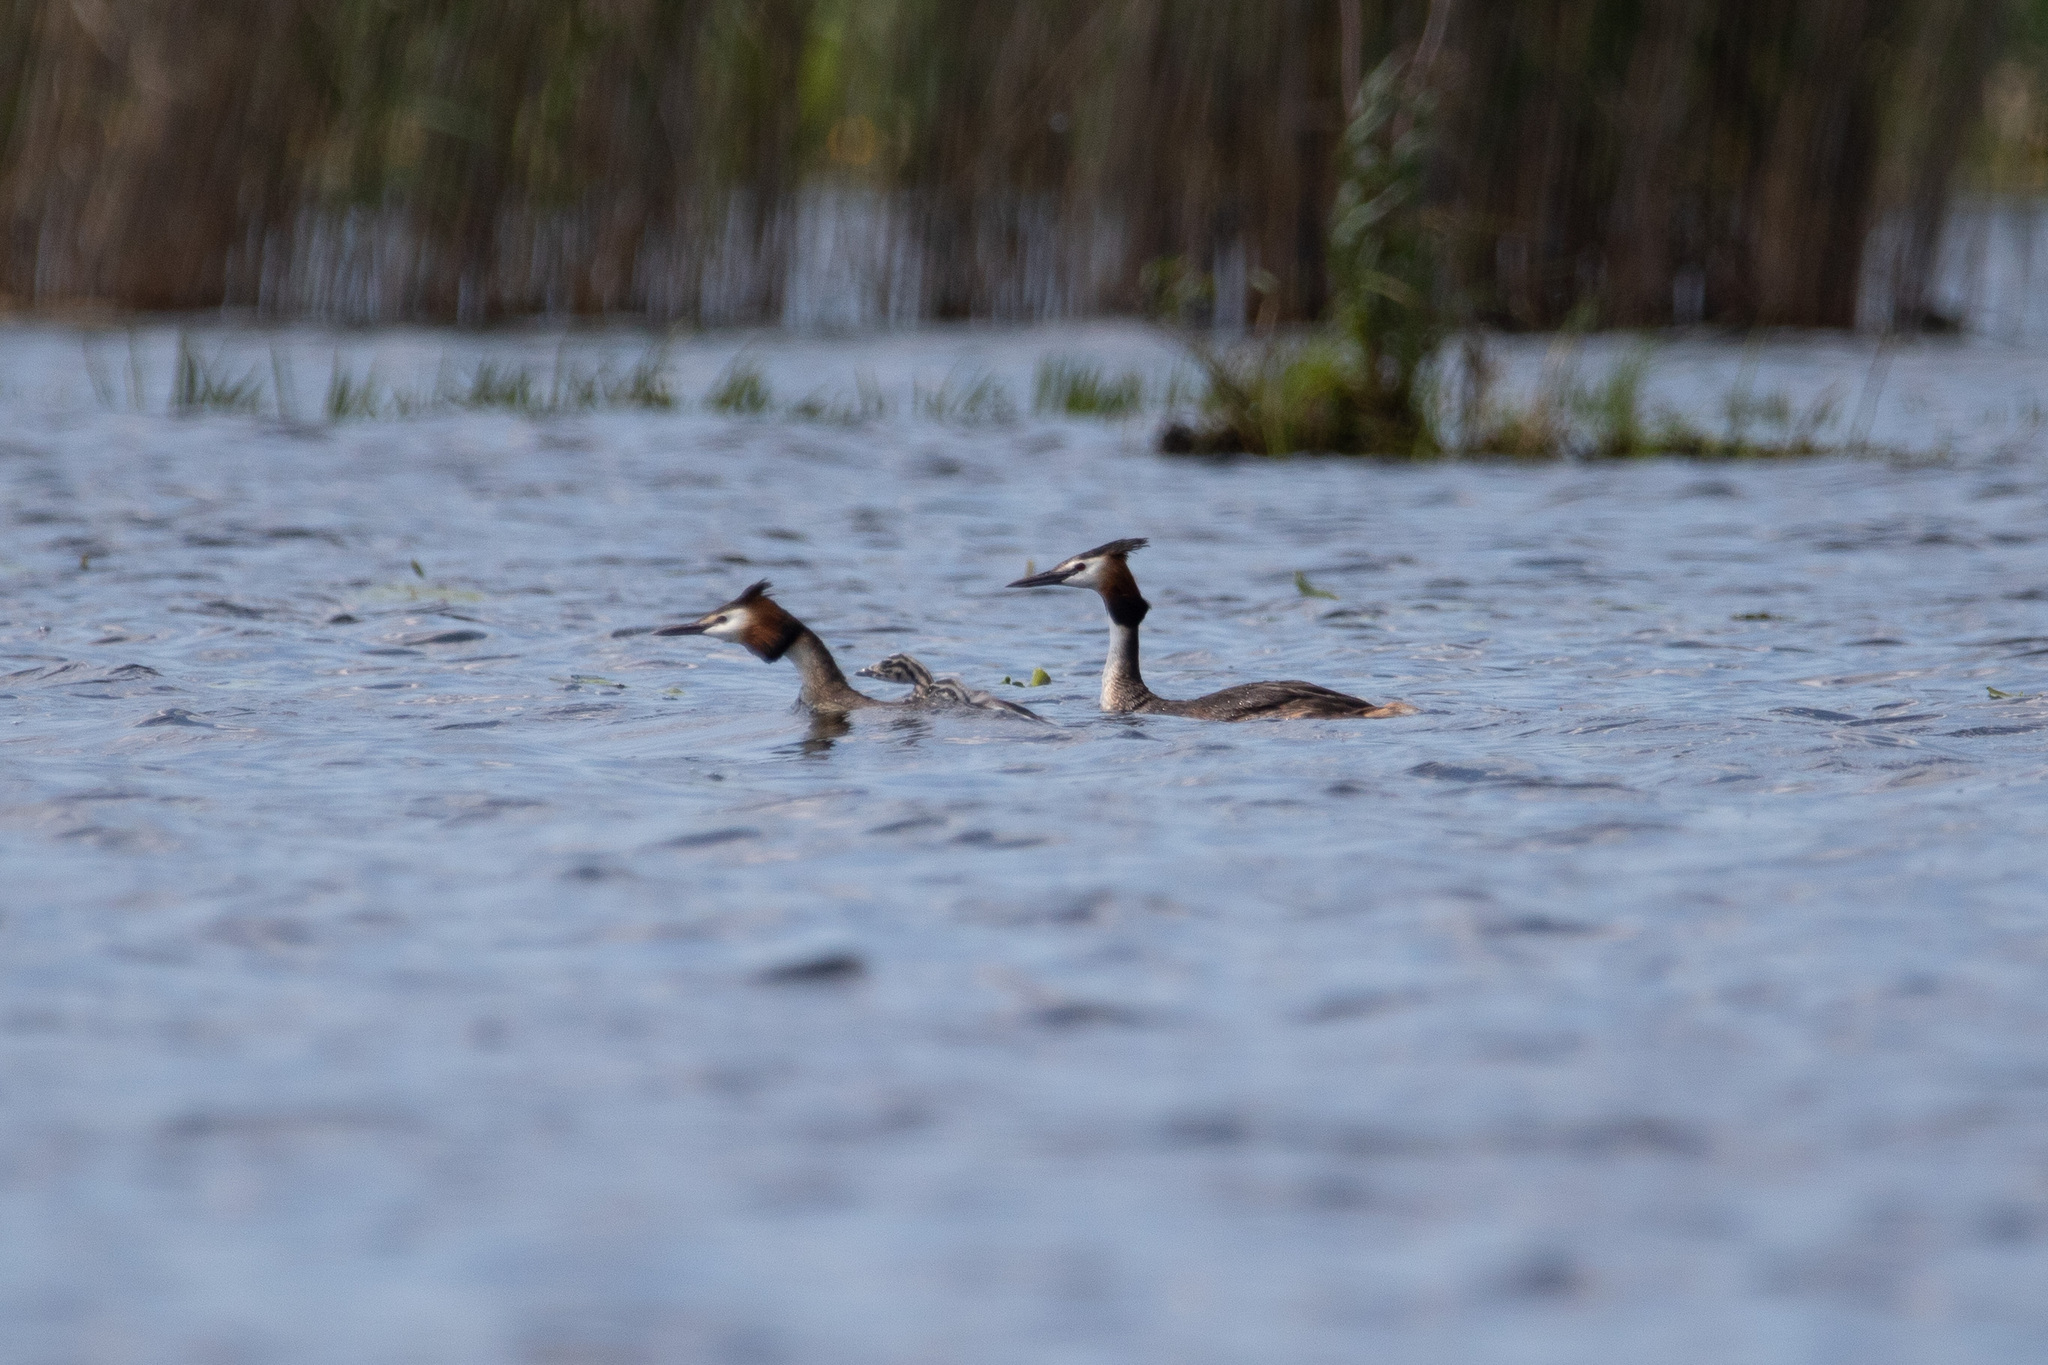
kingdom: Animalia
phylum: Chordata
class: Aves
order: Podicipediformes
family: Podicipedidae
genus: Podiceps
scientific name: Podiceps cristatus
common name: Great crested grebe
